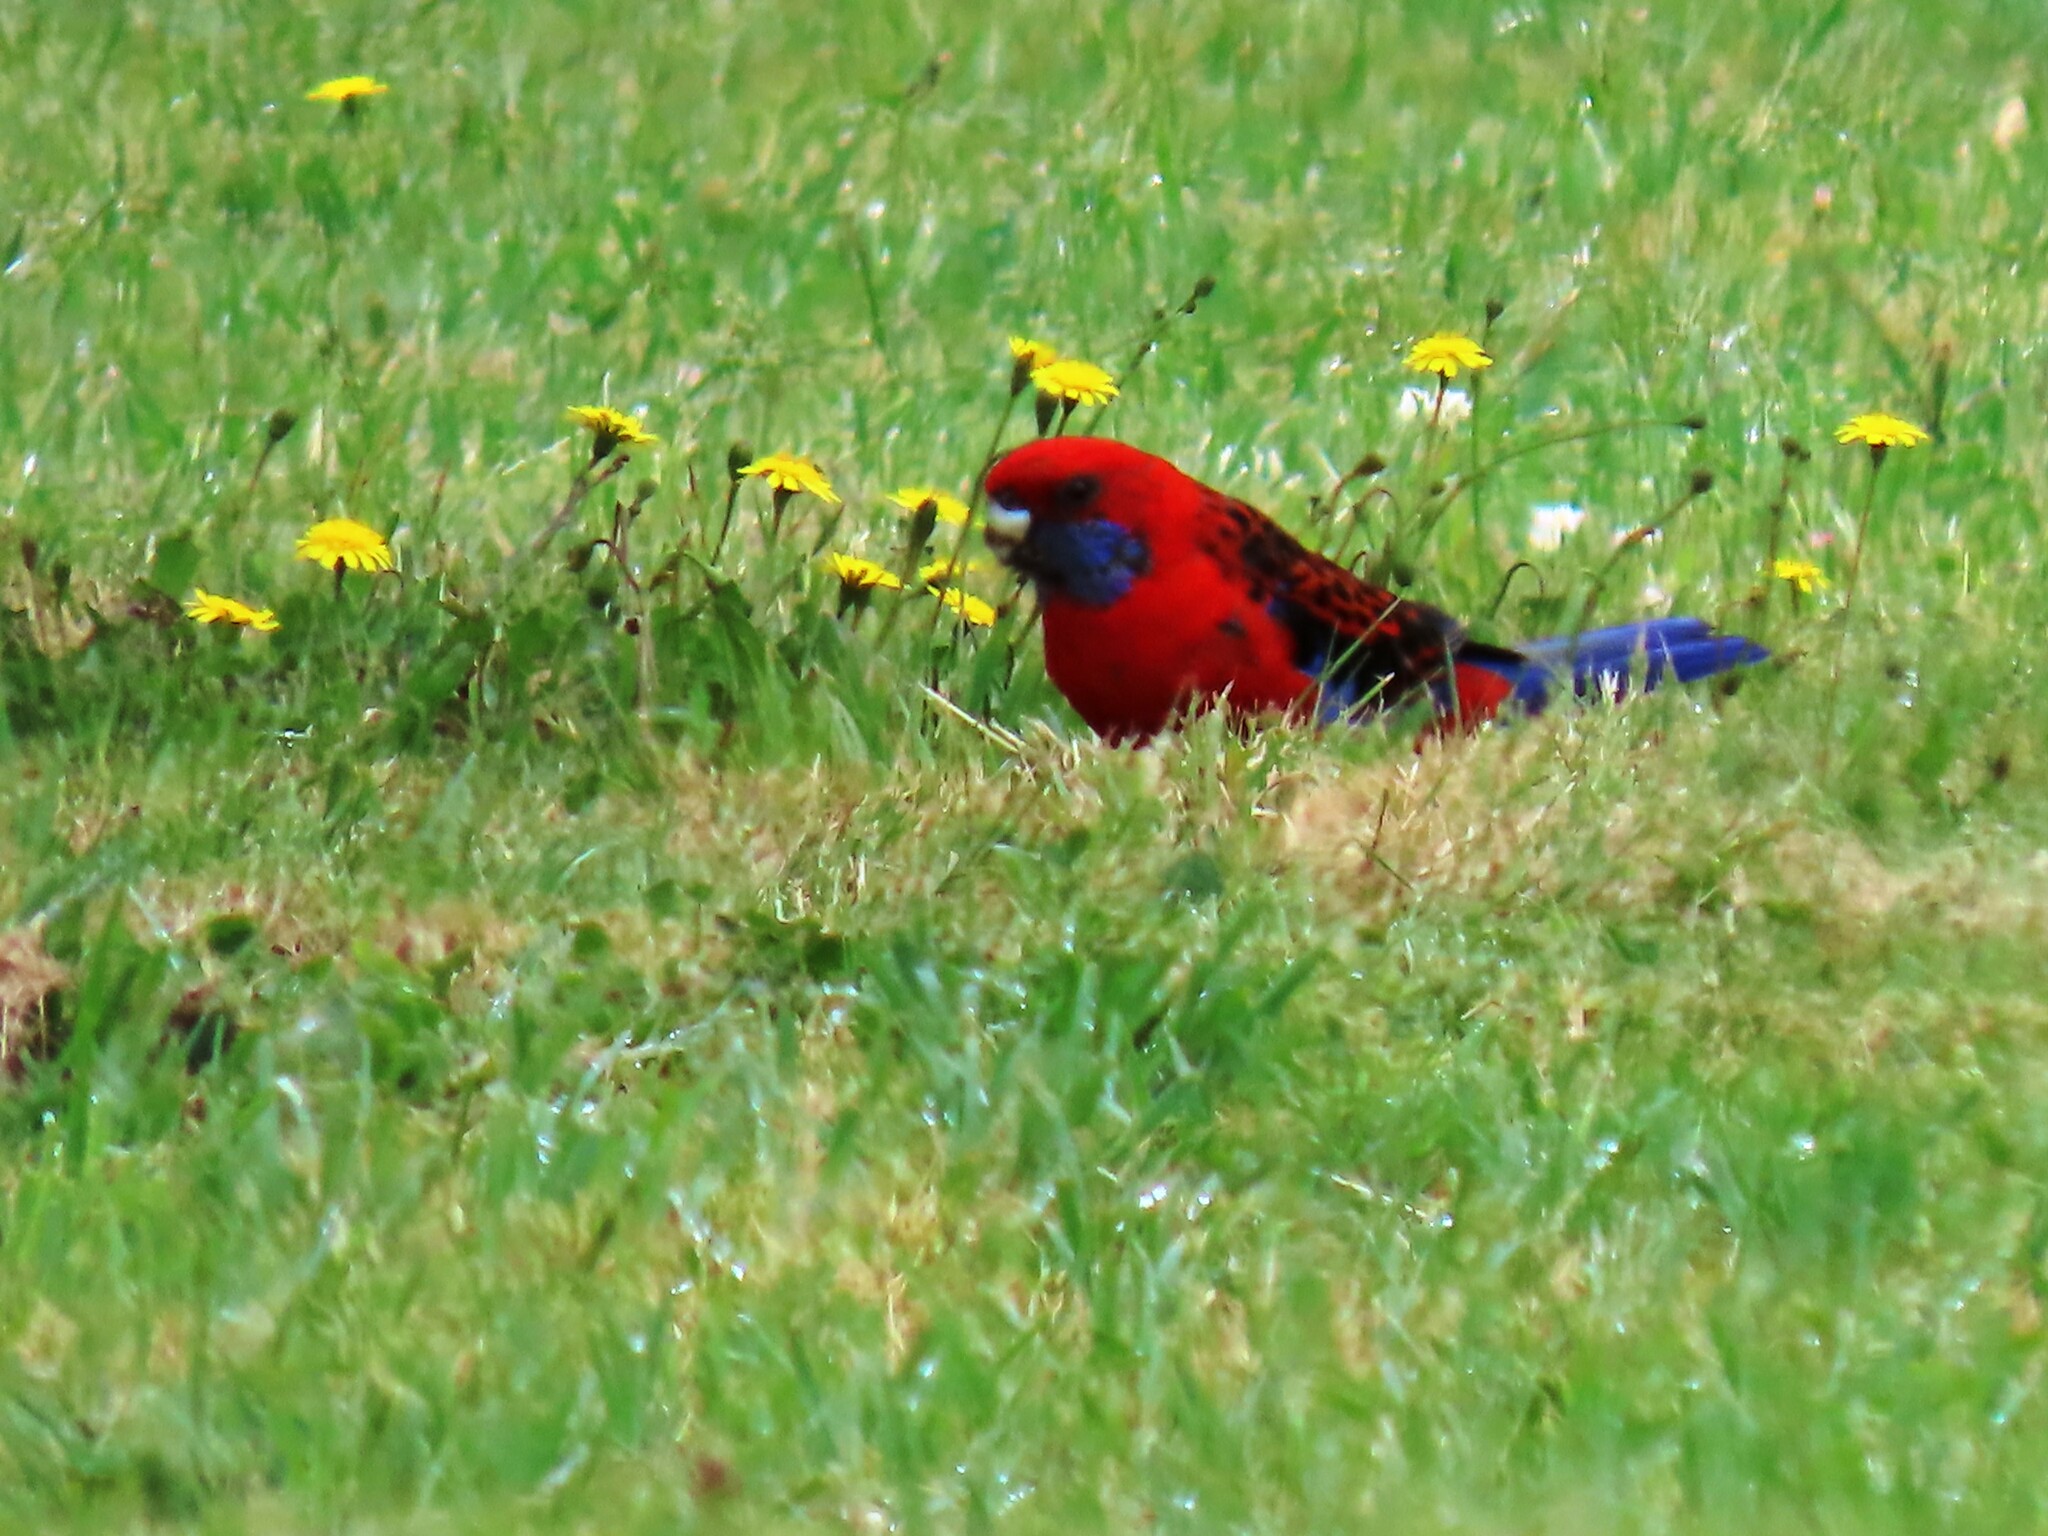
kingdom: Animalia
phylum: Chordata
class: Aves
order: Psittaciformes
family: Psittacidae
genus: Platycercus
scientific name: Platycercus elegans
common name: Crimson rosella
